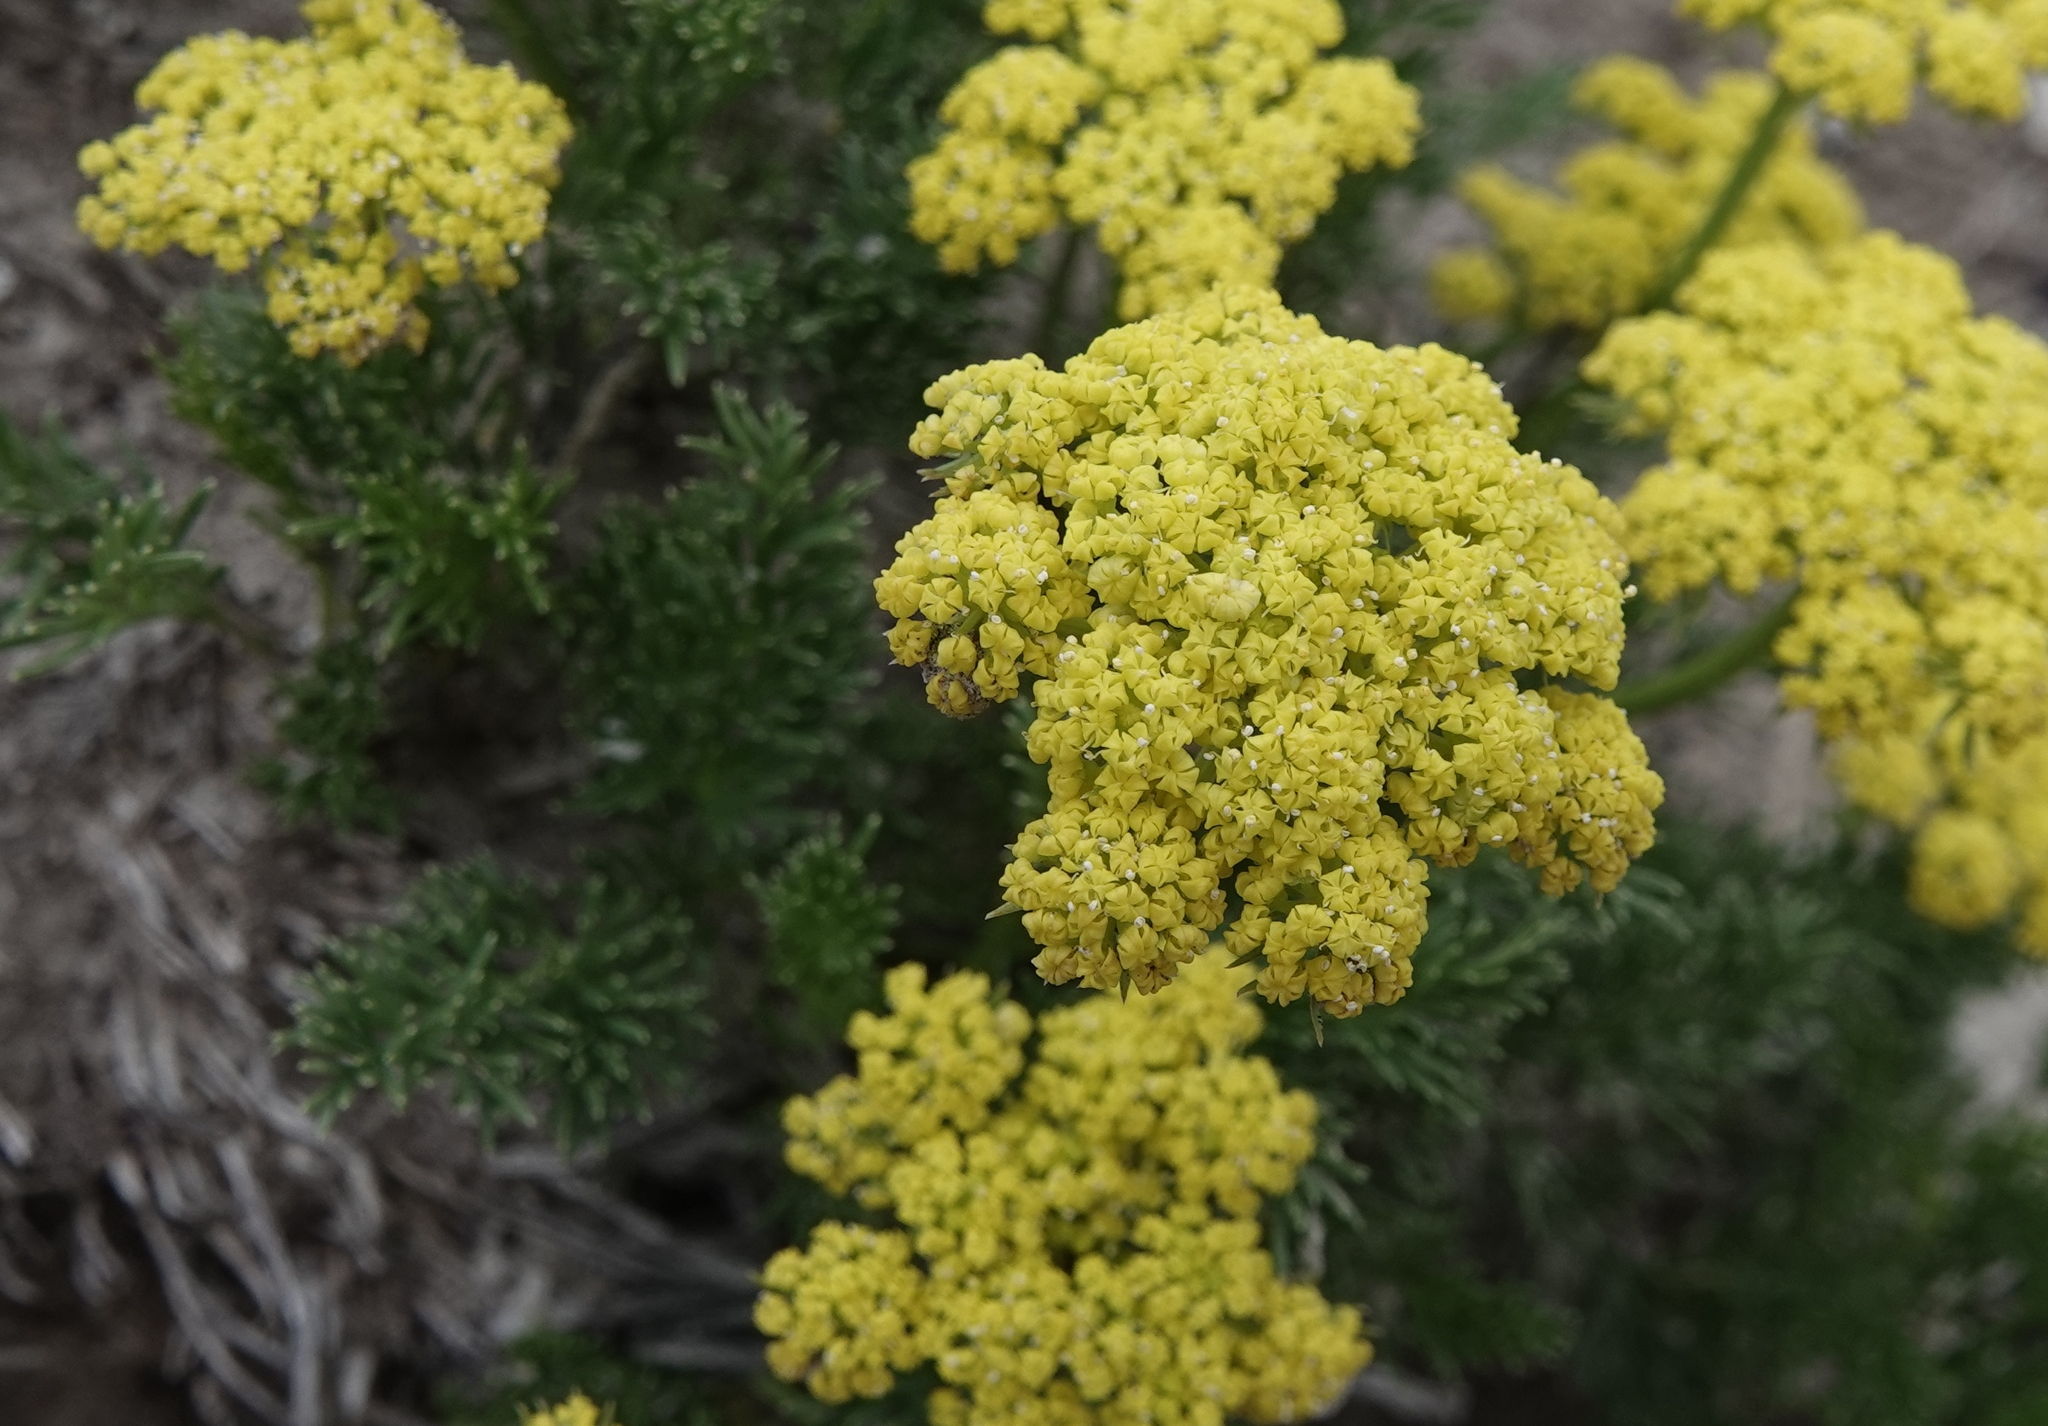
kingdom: Plantae
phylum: Tracheophyta
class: Magnoliopsida
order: Apiales
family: Apiaceae
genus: Musineon
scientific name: Musineon tenuifolium
